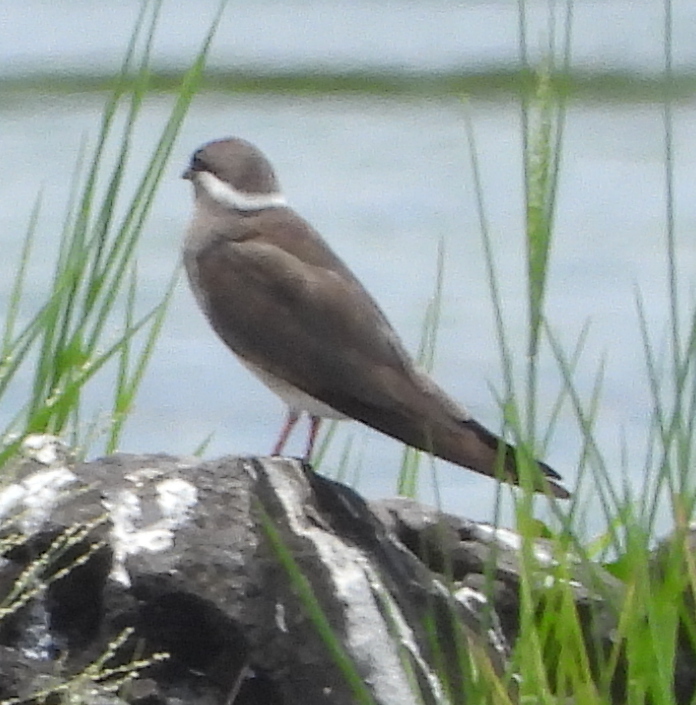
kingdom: Animalia
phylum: Chordata
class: Aves
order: Charadriiformes
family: Glareolidae
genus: Glareola
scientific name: Glareola nuchalis
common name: Rock pratincole
